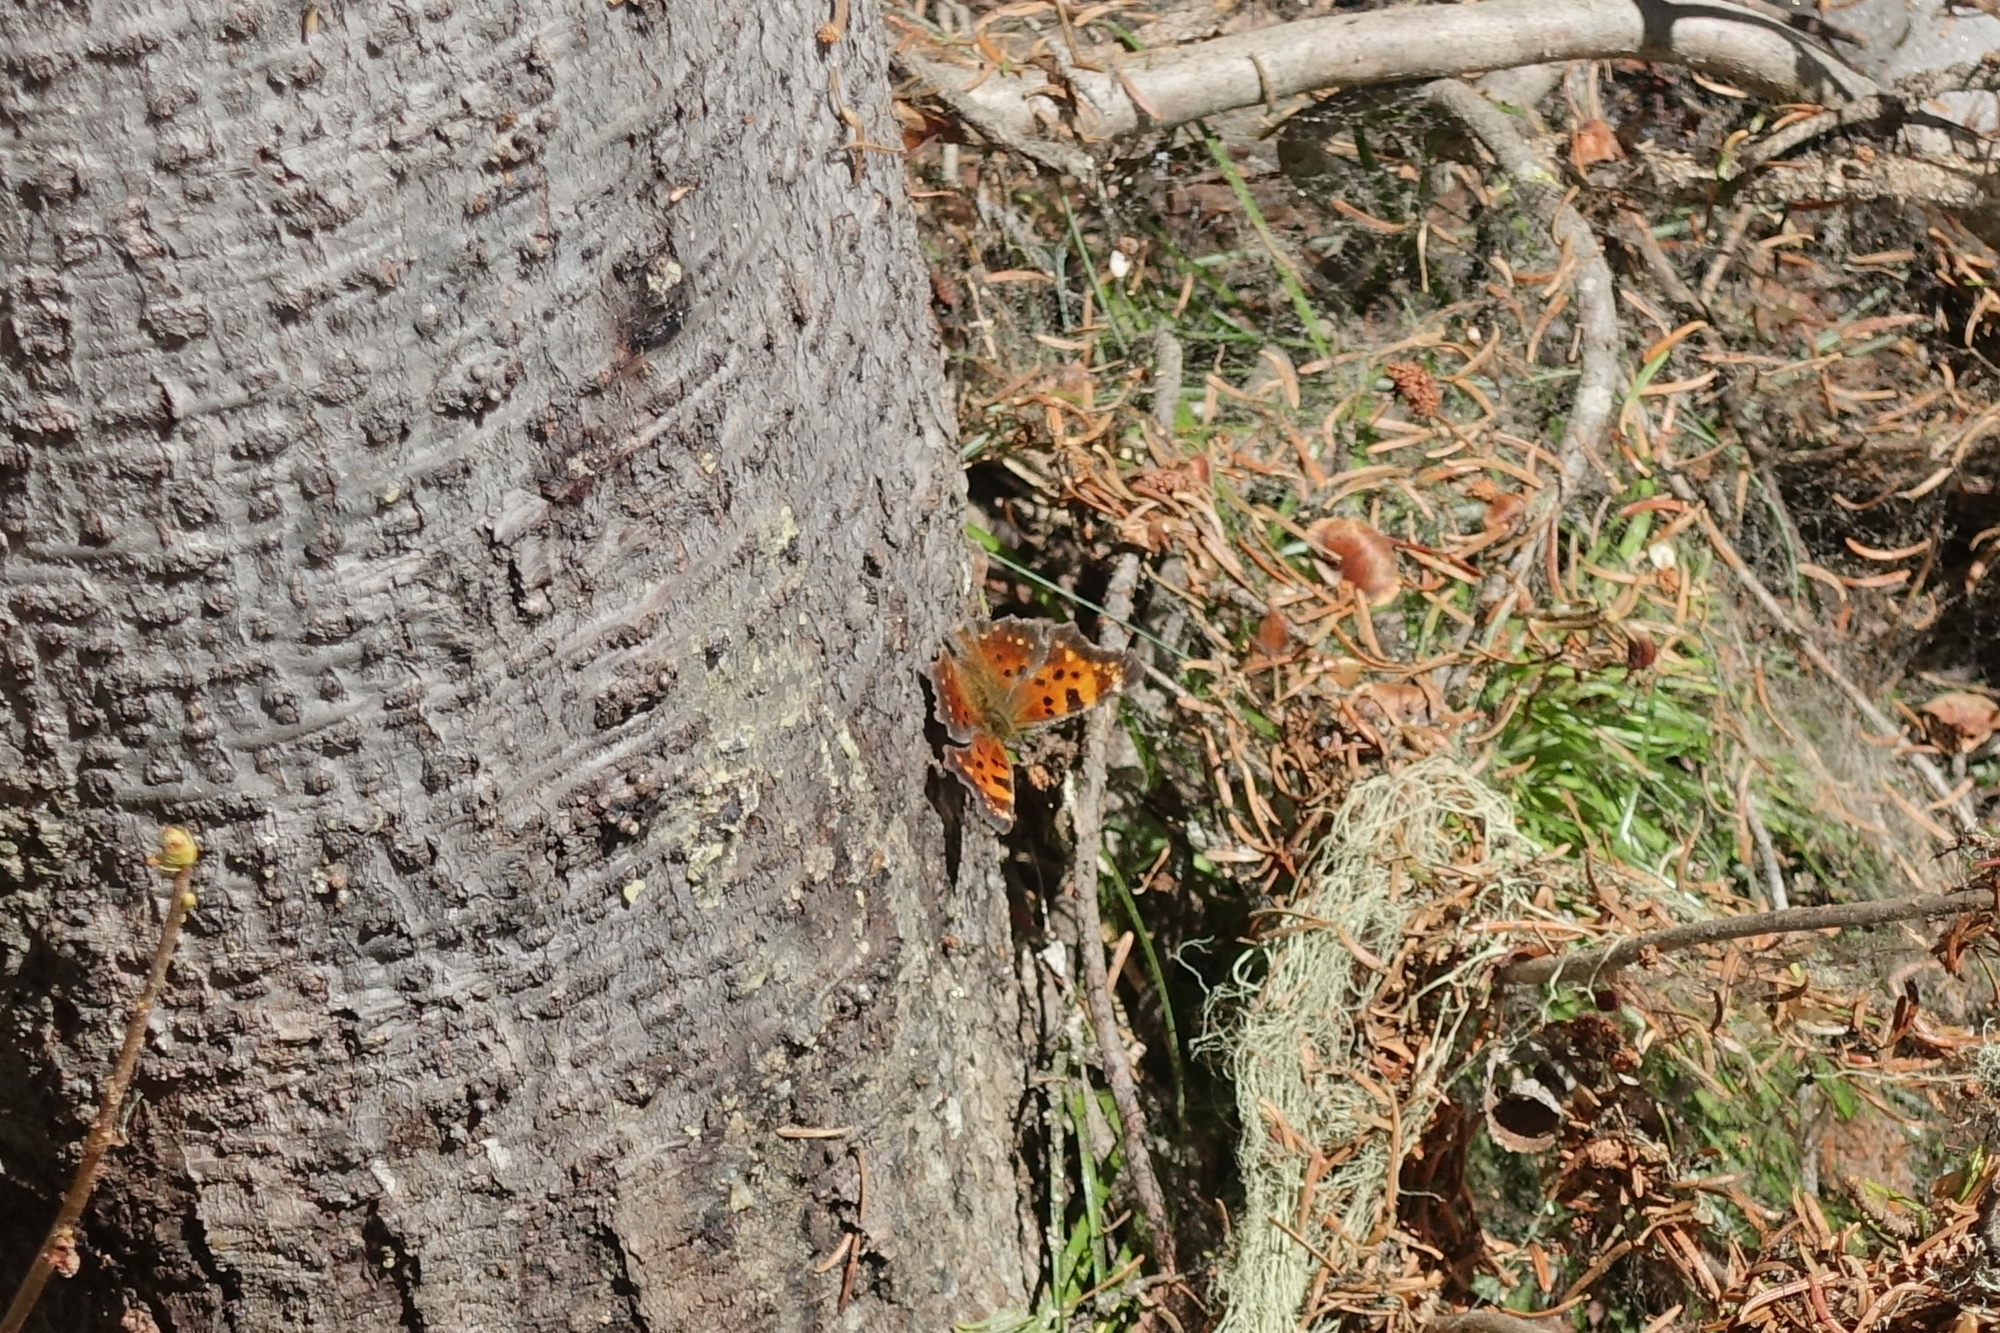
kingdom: Animalia
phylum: Arthropoda
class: Insecta
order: Lepidoptera
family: Nymphalidae
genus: Polygonia
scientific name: Polygonia faunus
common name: Green comma
